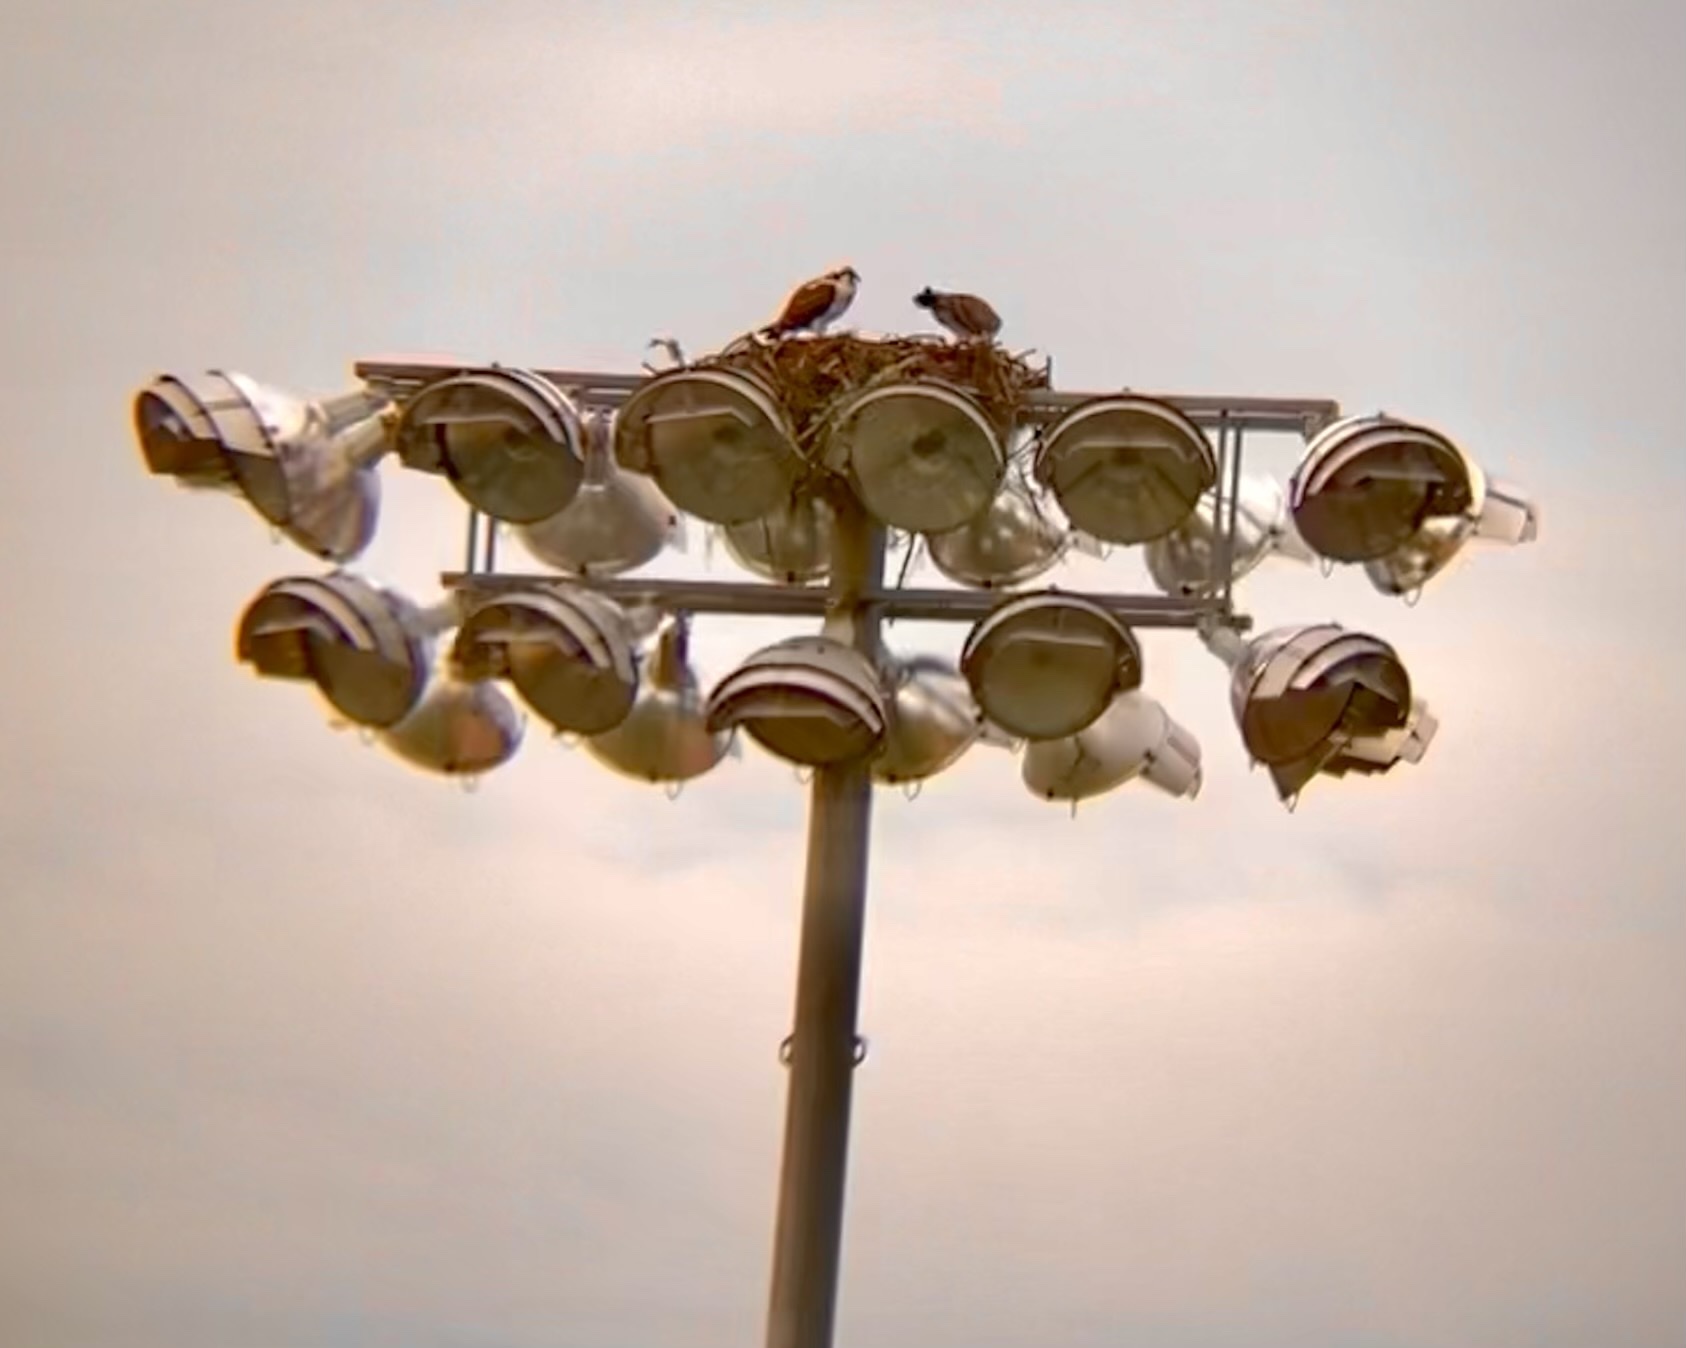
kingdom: Animalia
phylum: Chordata
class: Aves
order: Accipitriformes
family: Pandionidae
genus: Pandion
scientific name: Pandion haliaetus
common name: Osprey
